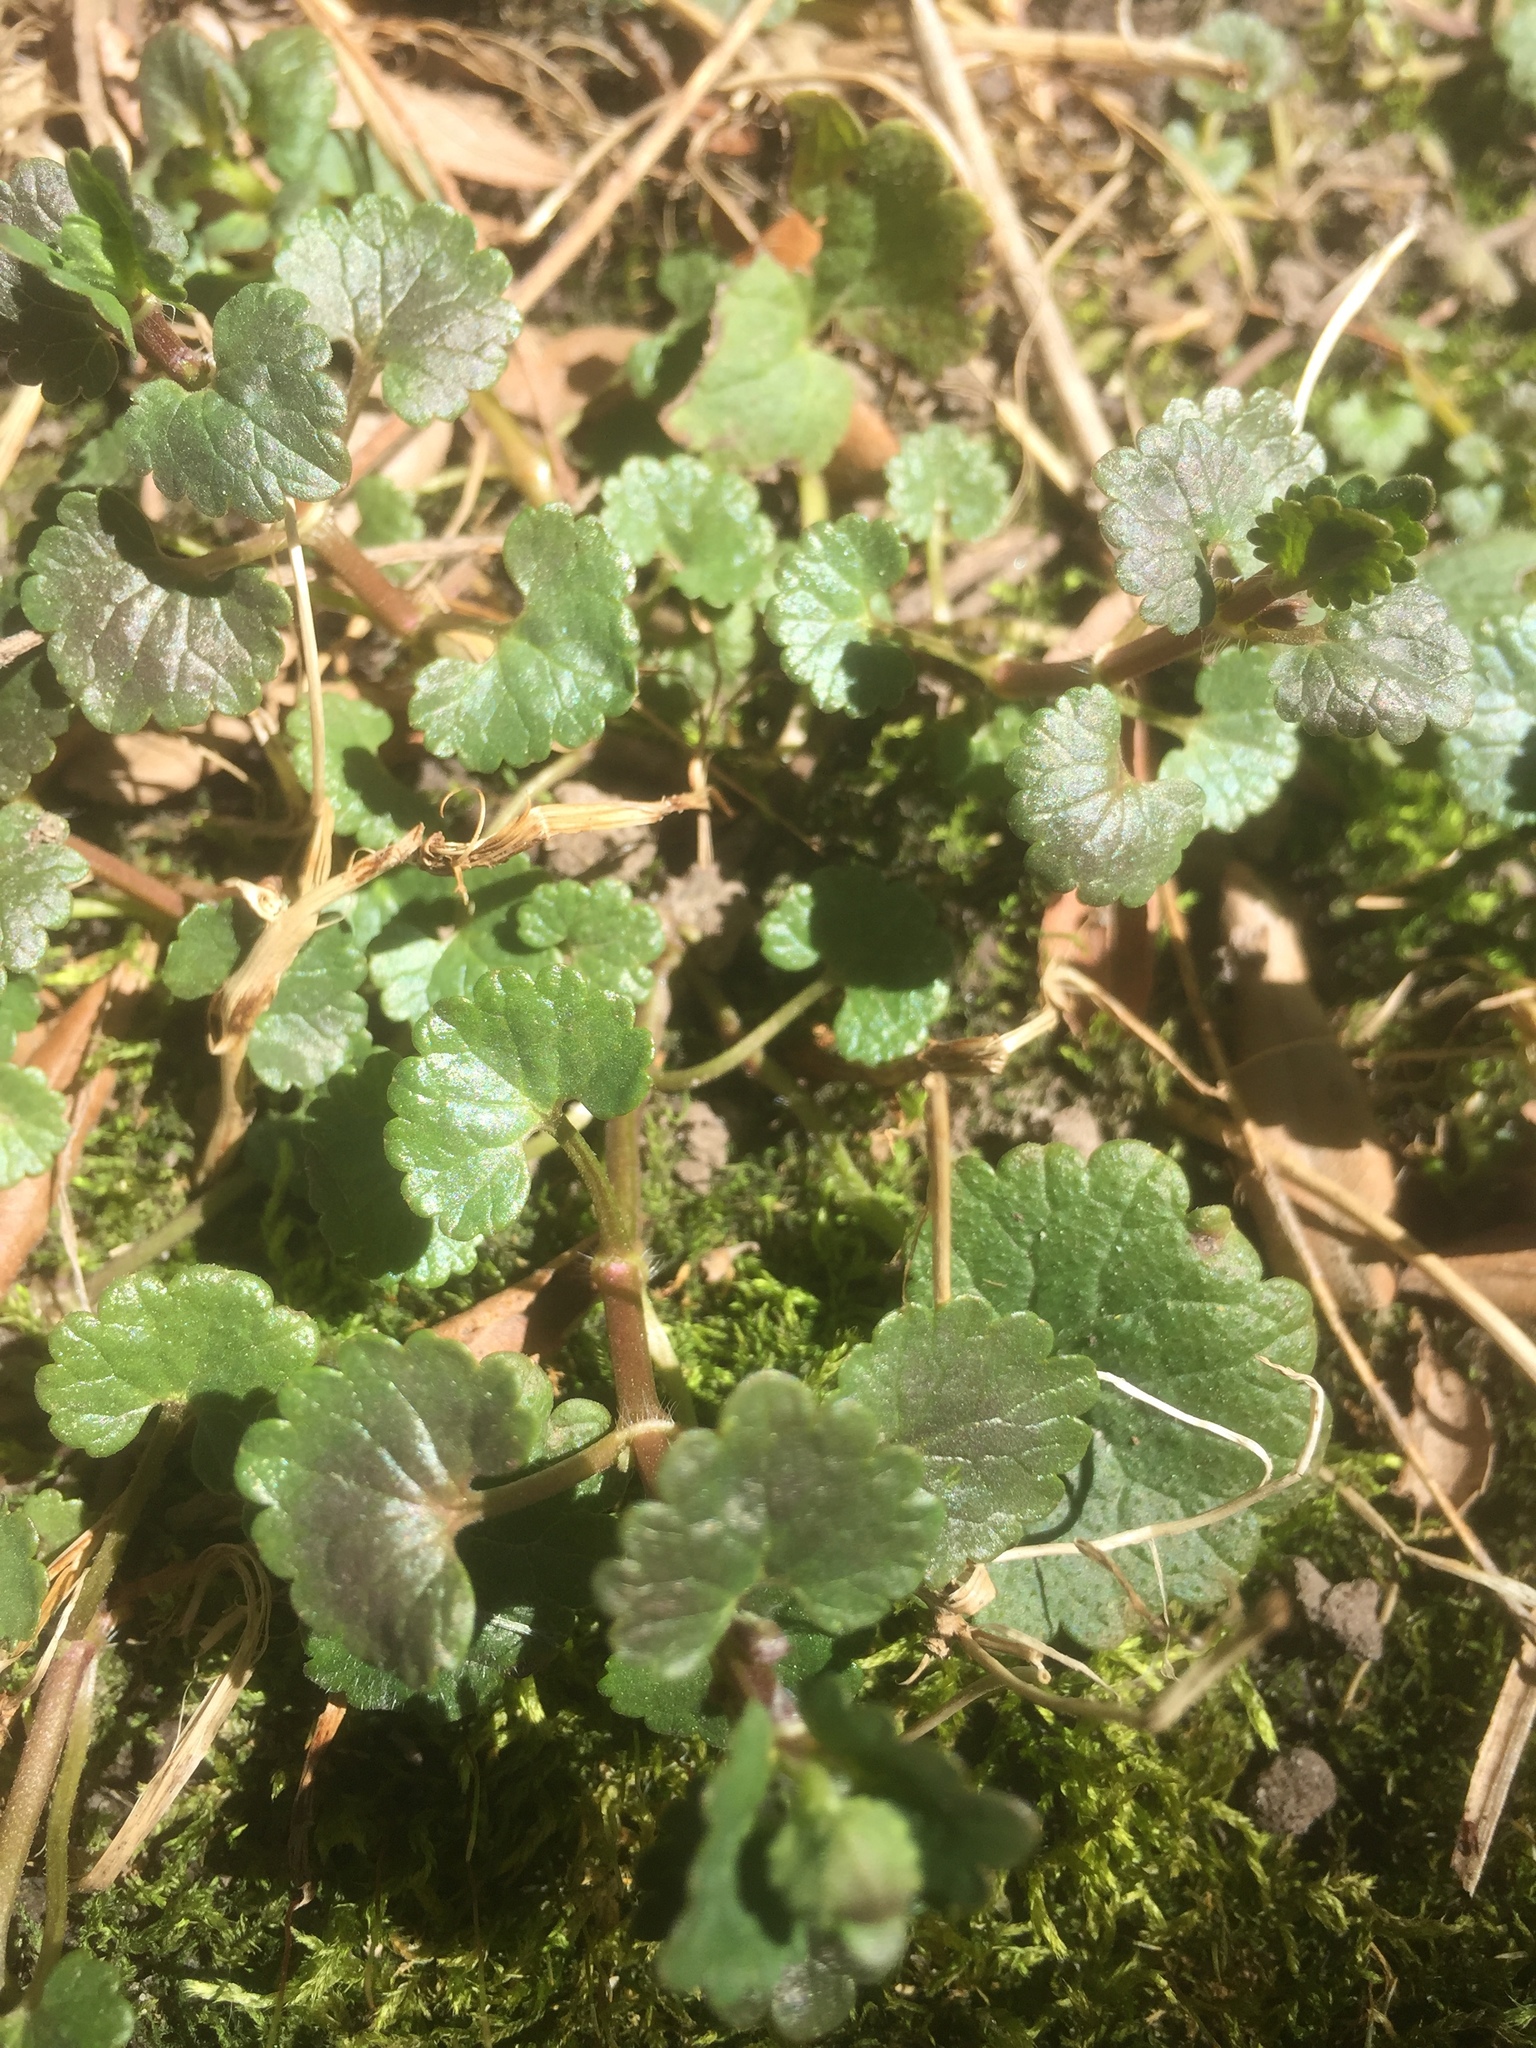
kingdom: Plantae
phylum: Tracheophyta
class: Magnoliopsida
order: Lamiales
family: Lamiaceae
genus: Glechoma
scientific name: Glechoma hederacea
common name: Ground ivy
